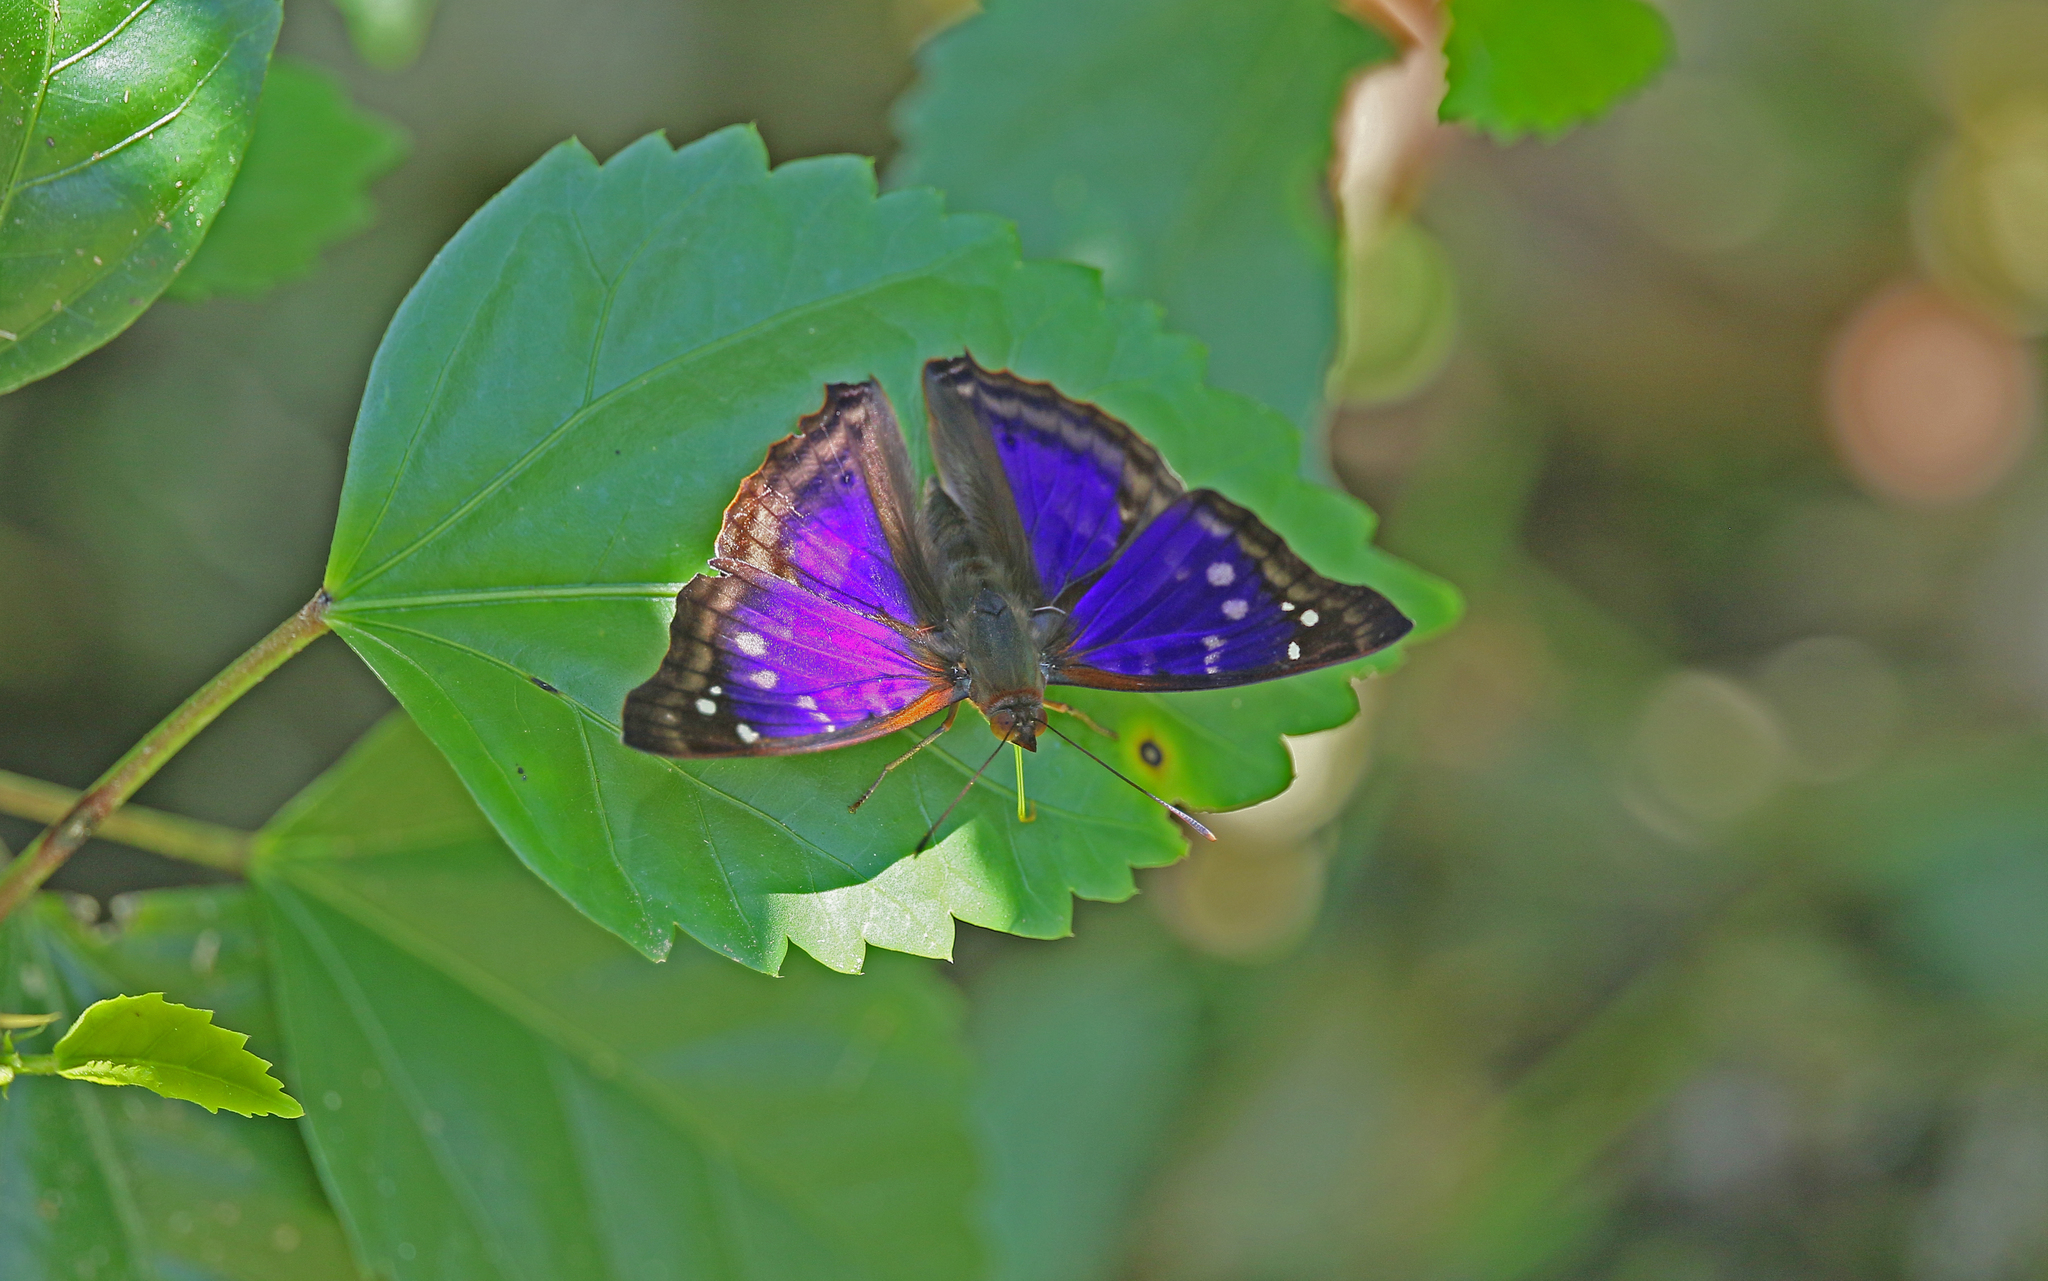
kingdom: Animalia
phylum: Arthropoda
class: Insecta
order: Lepidoptera
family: Nymphalidae
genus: Doxocopa
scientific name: Doxocopa agathina
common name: Agathina emperor
